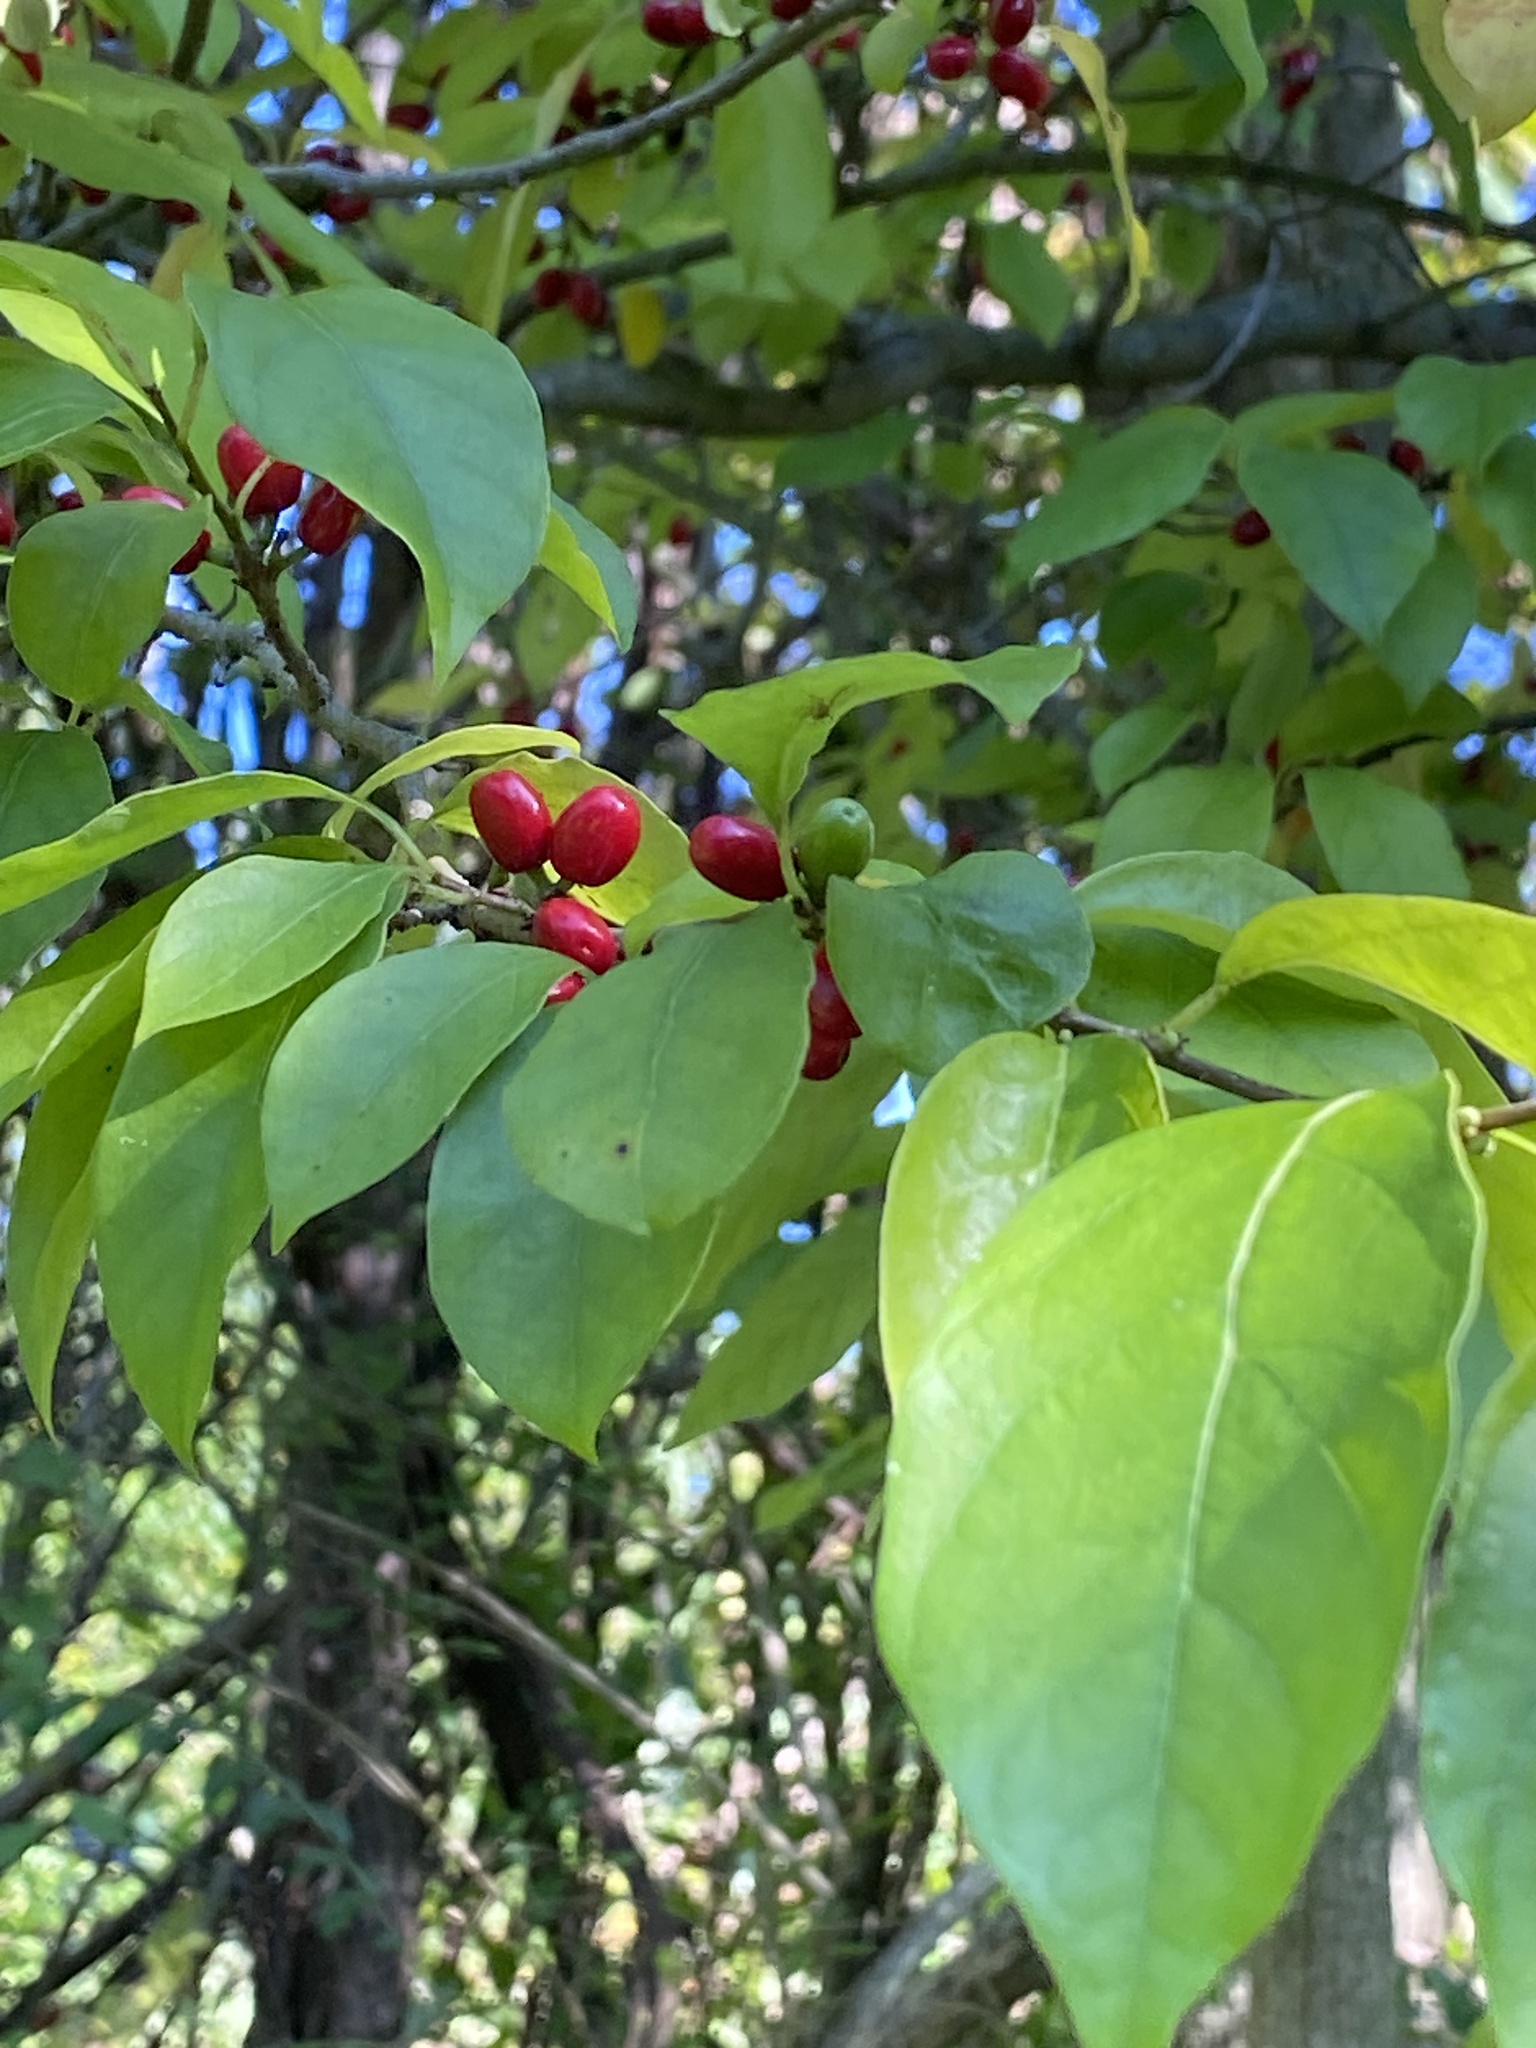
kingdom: Plantae
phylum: Tracheophyta
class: Magnoliopsida
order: Laurales
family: Lauraceae
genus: Lindera
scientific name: Lindera benzoin
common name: Spicebush
